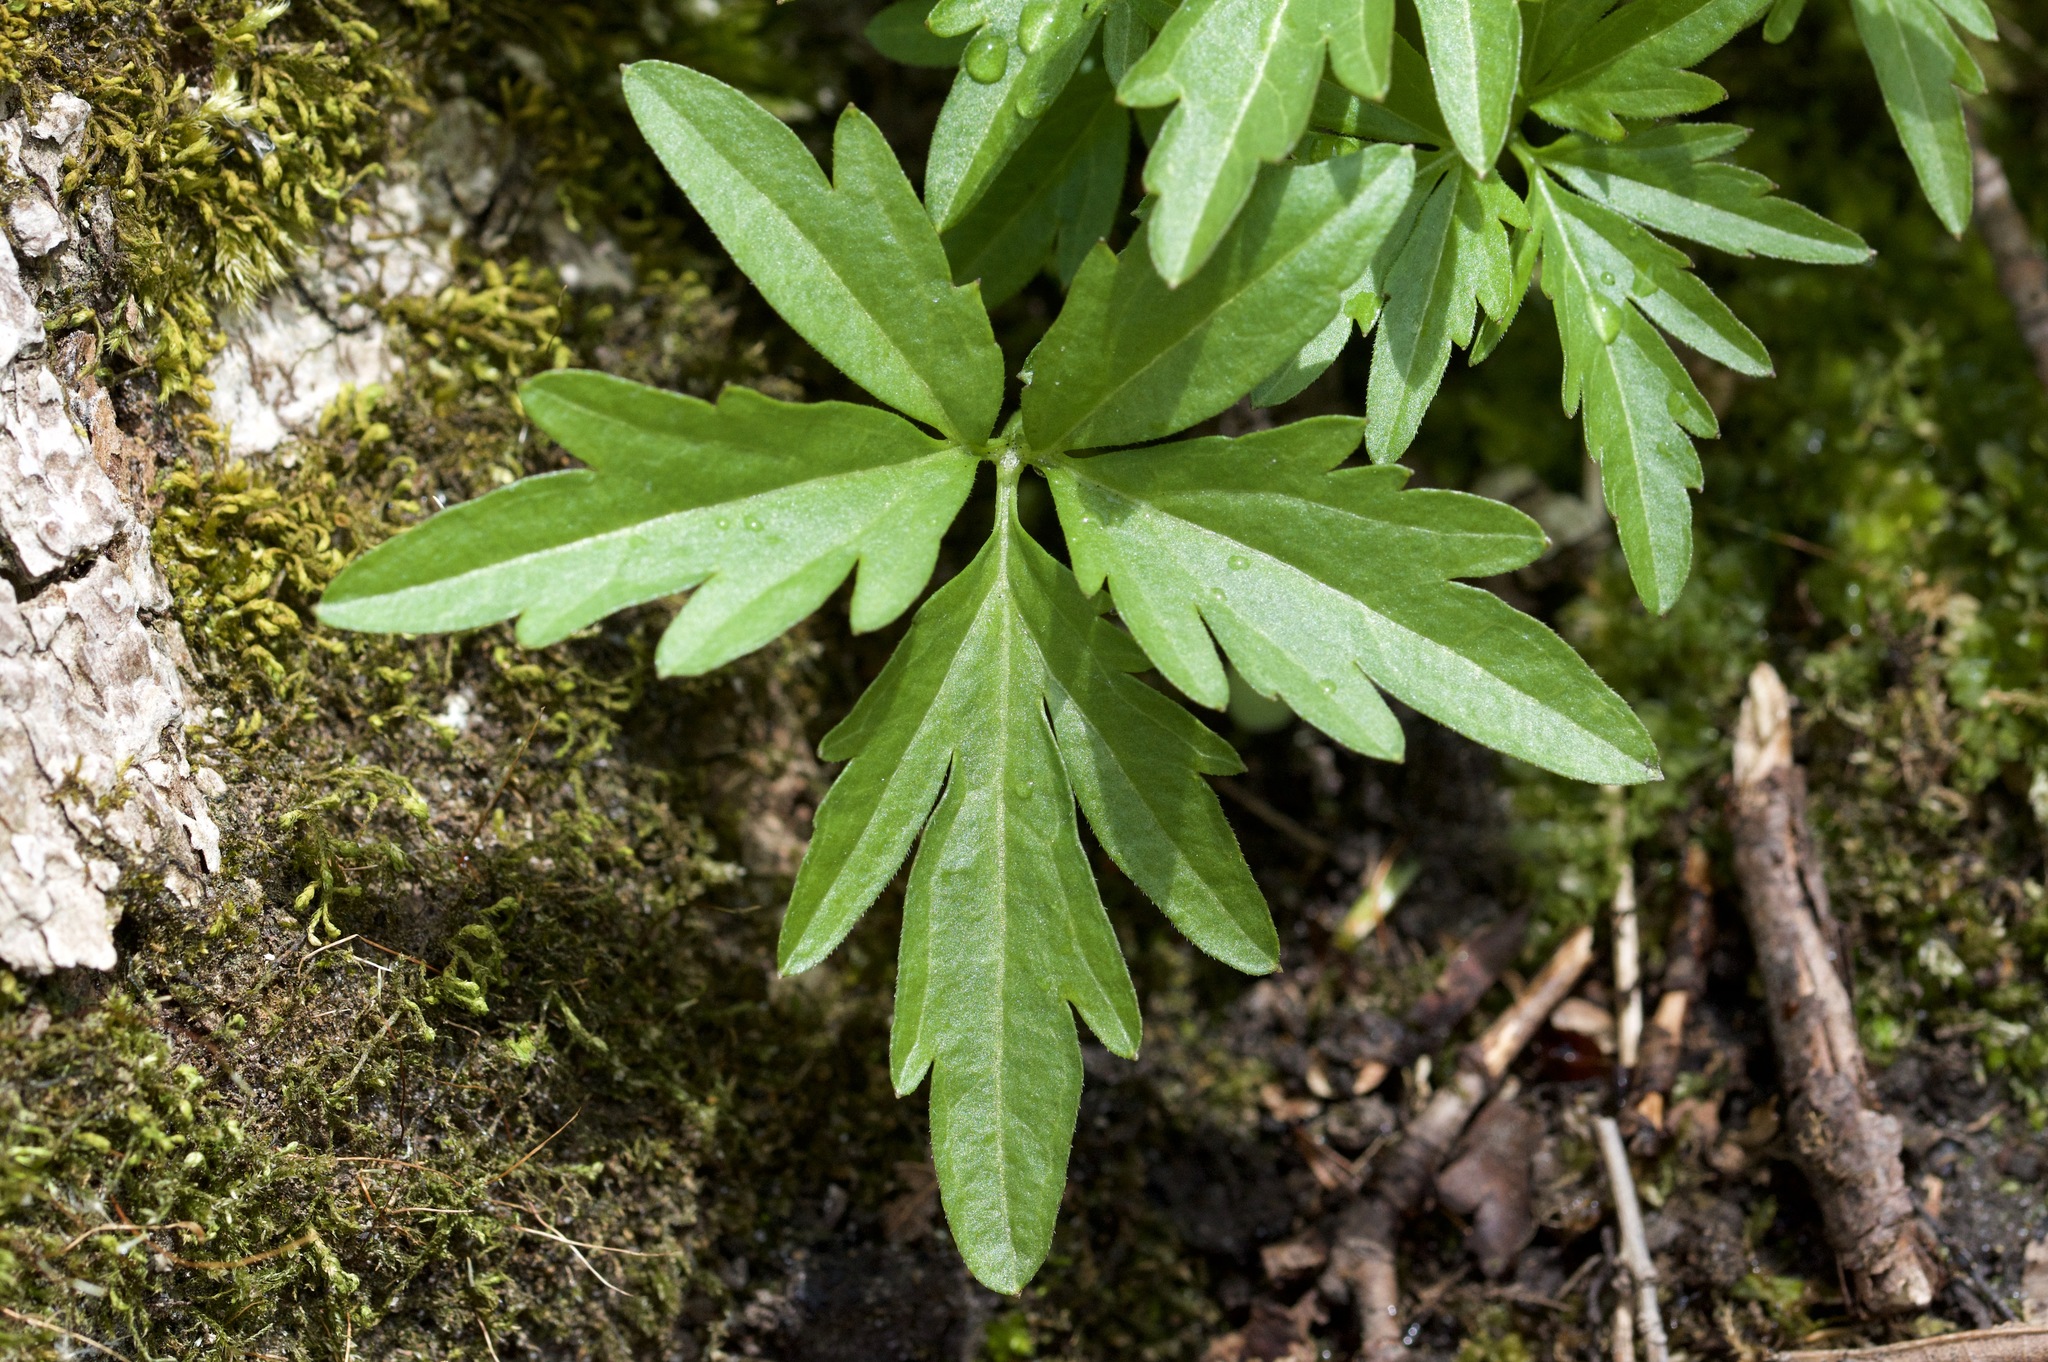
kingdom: Plantae
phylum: Tracheophyta
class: Magnoliopsida
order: Brassicales
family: Brassicaceae
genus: Cardamine
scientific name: Cardamine concatenata
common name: Cut-leaf toothcup
